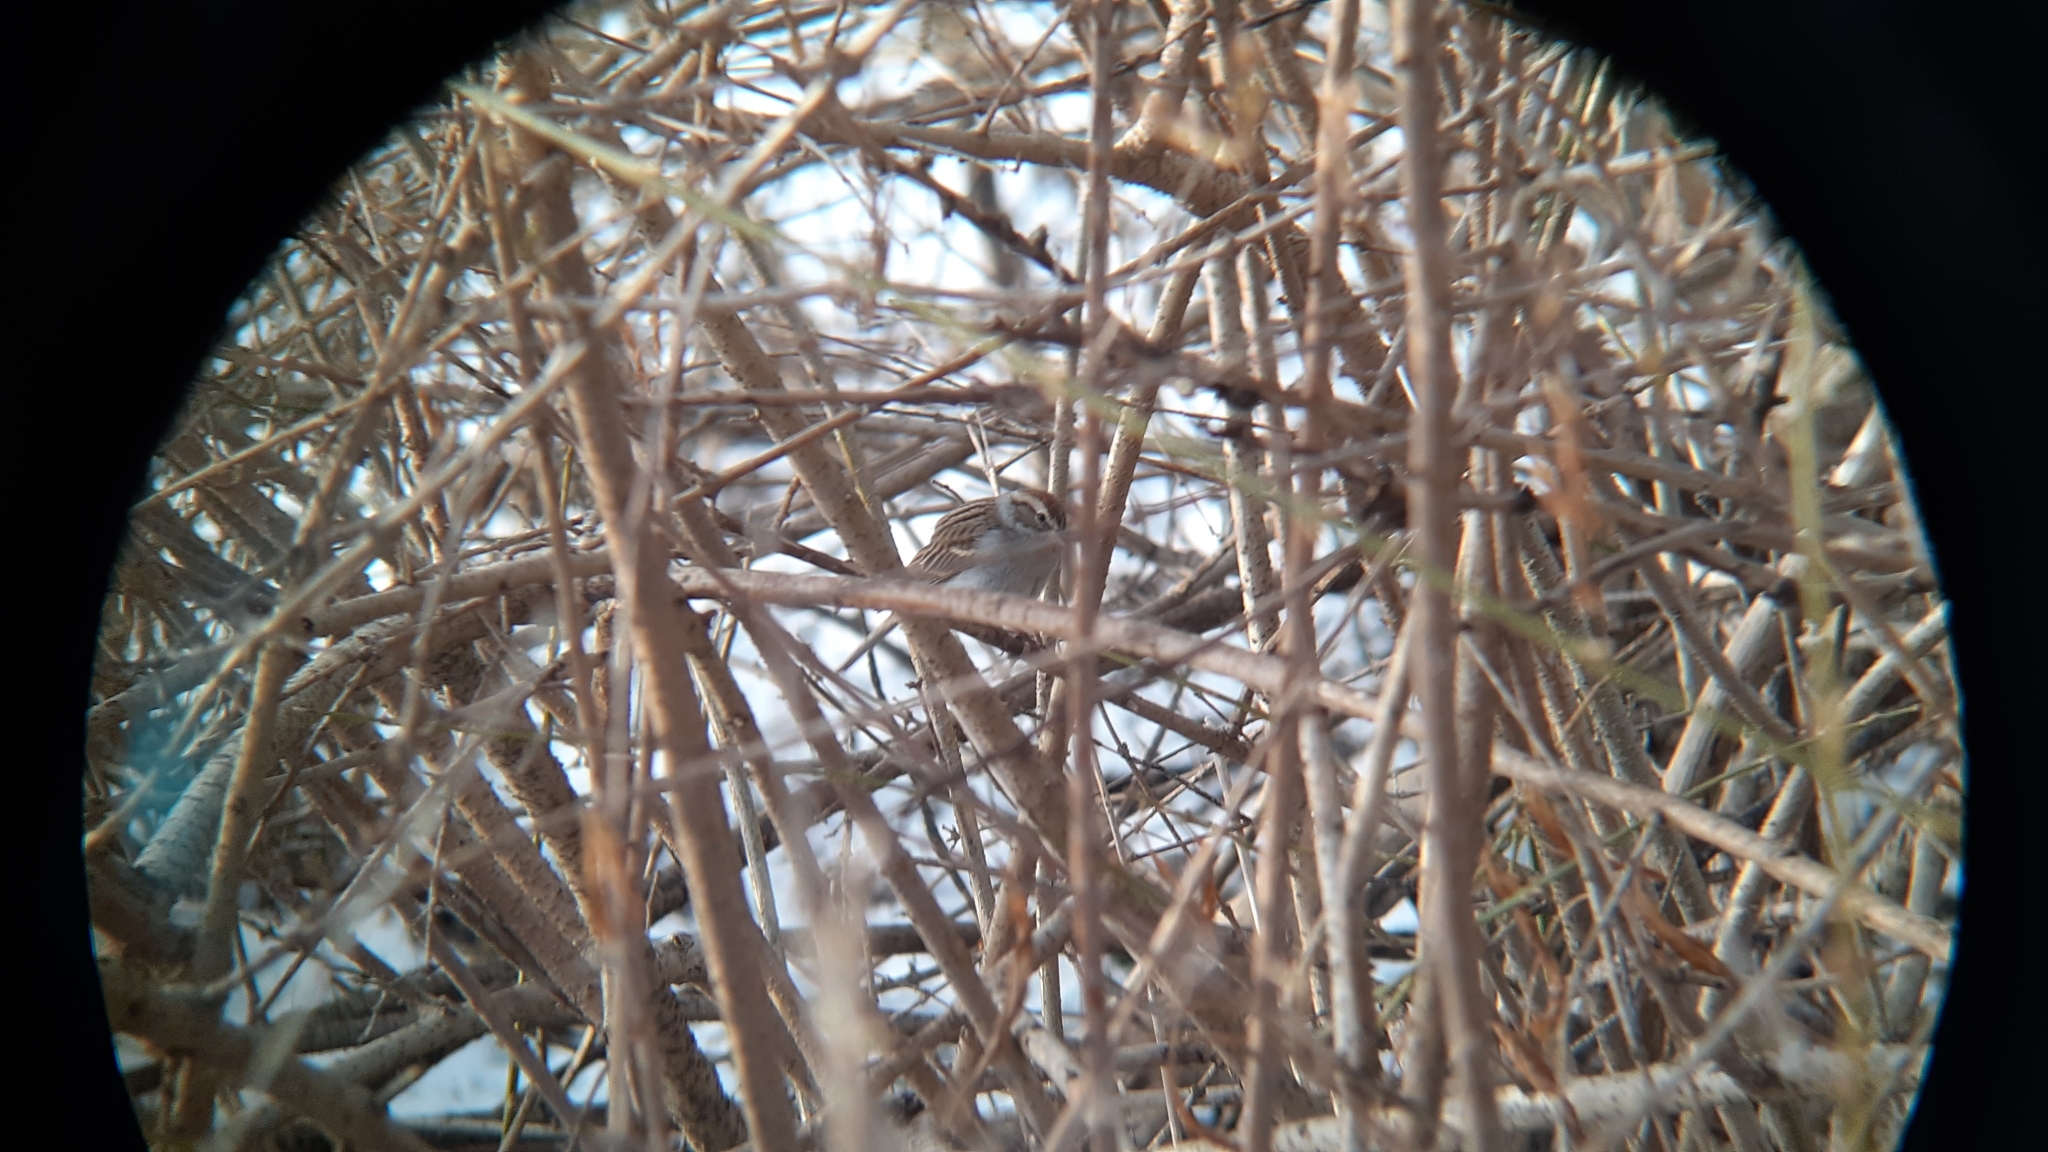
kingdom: Animalia
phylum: Chordata
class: Aves
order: Passeriformes
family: Passerellidae
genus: Spizella
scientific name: Spizella passerina
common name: Chipping sparrow
